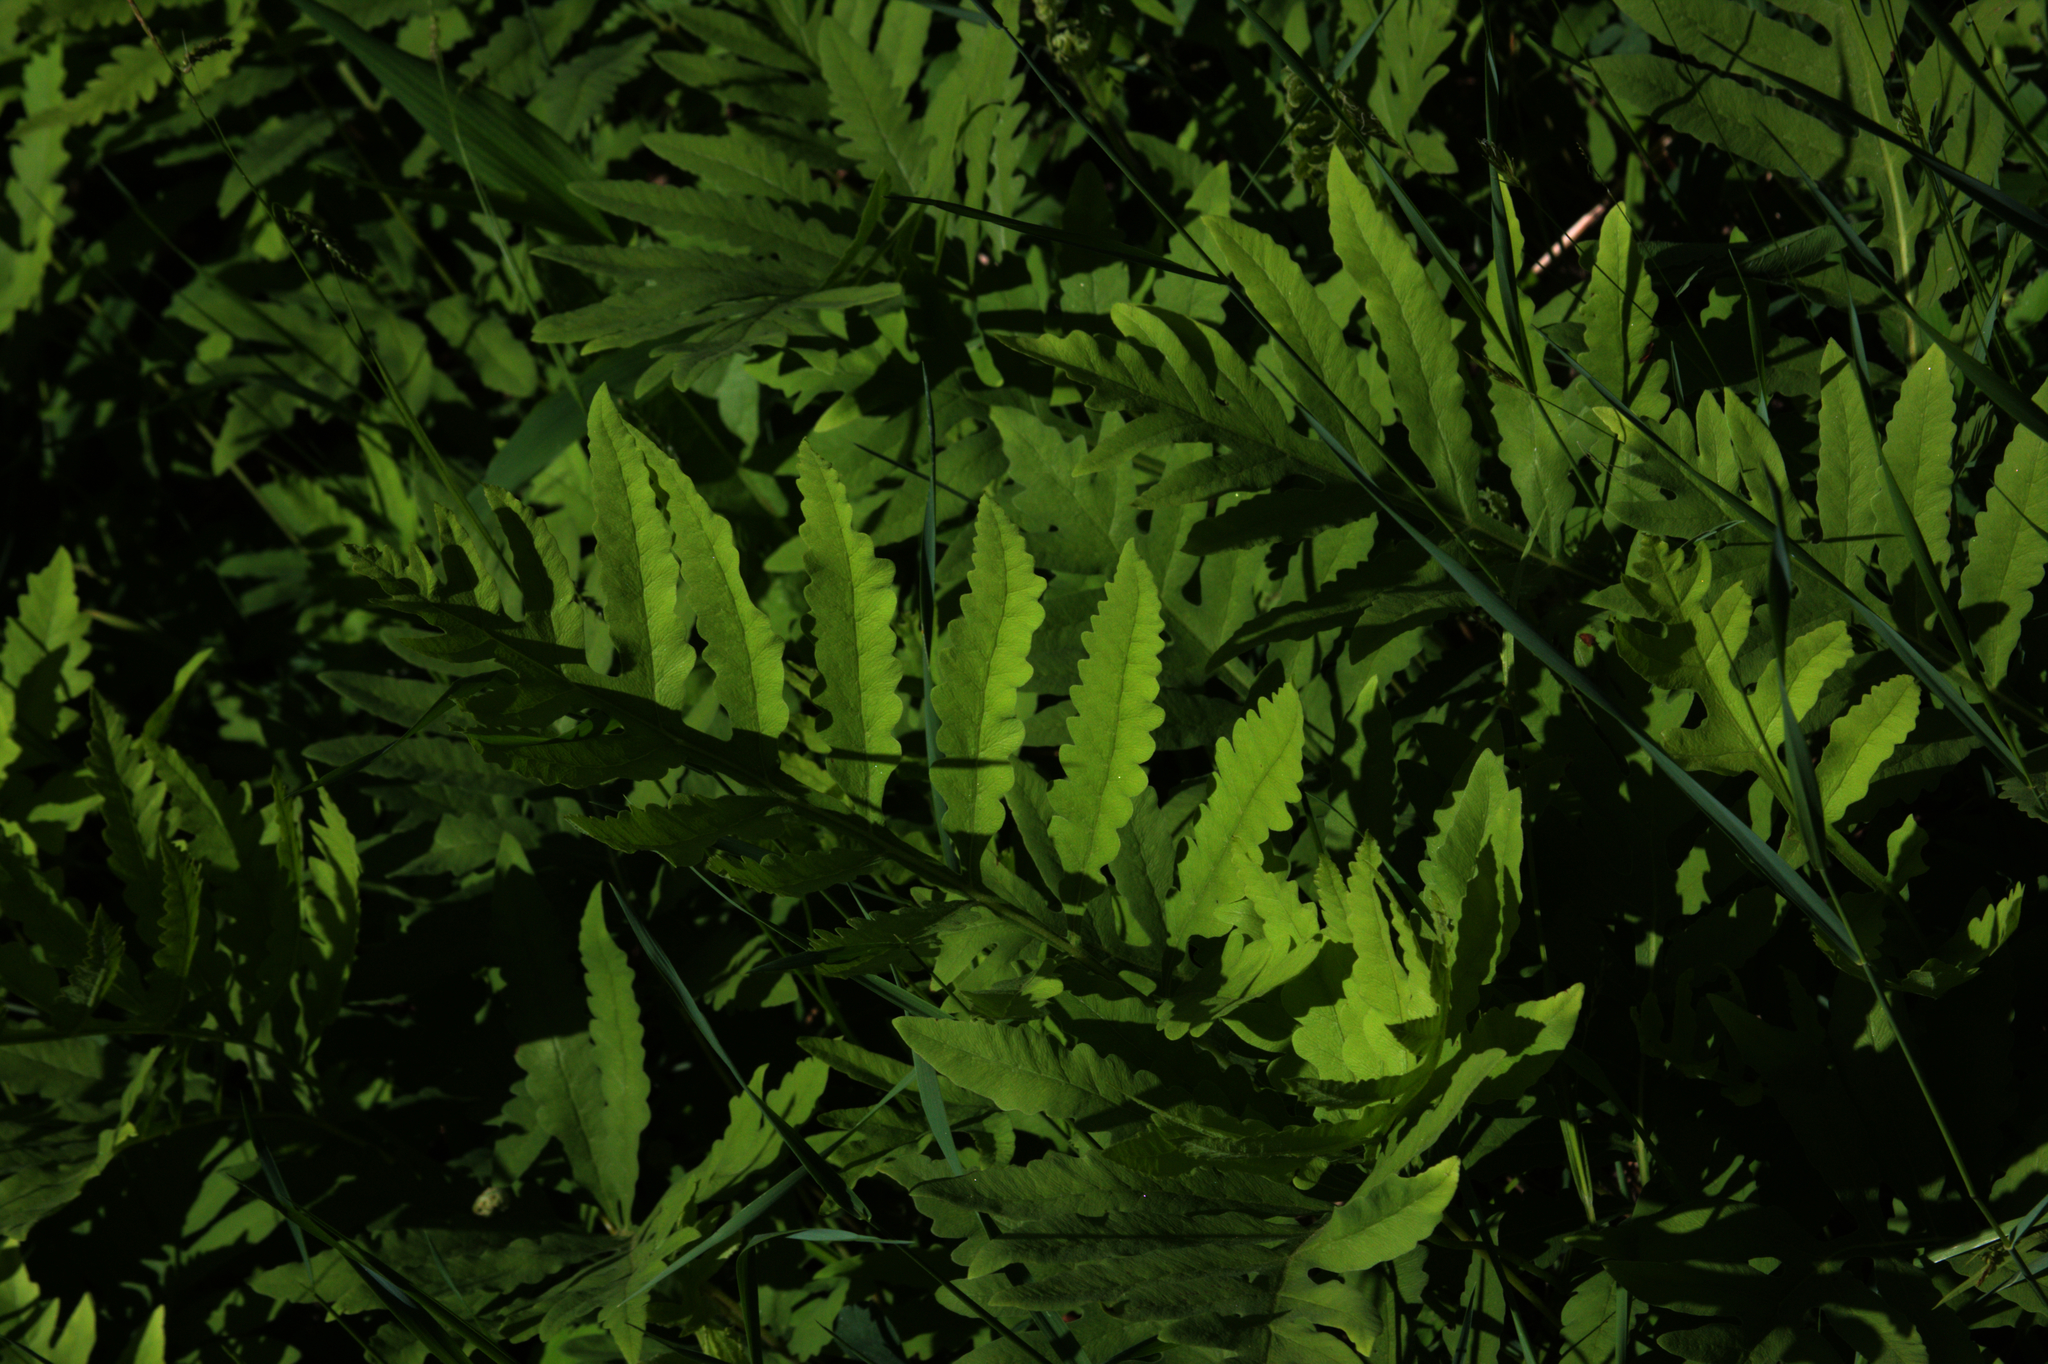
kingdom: Plantae
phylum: Tracheophyta
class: Polypodiopsida
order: Polypodiales
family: Onocleaceae
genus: Onoclea
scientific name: Onoclea sensibilis
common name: Sensitive fern
